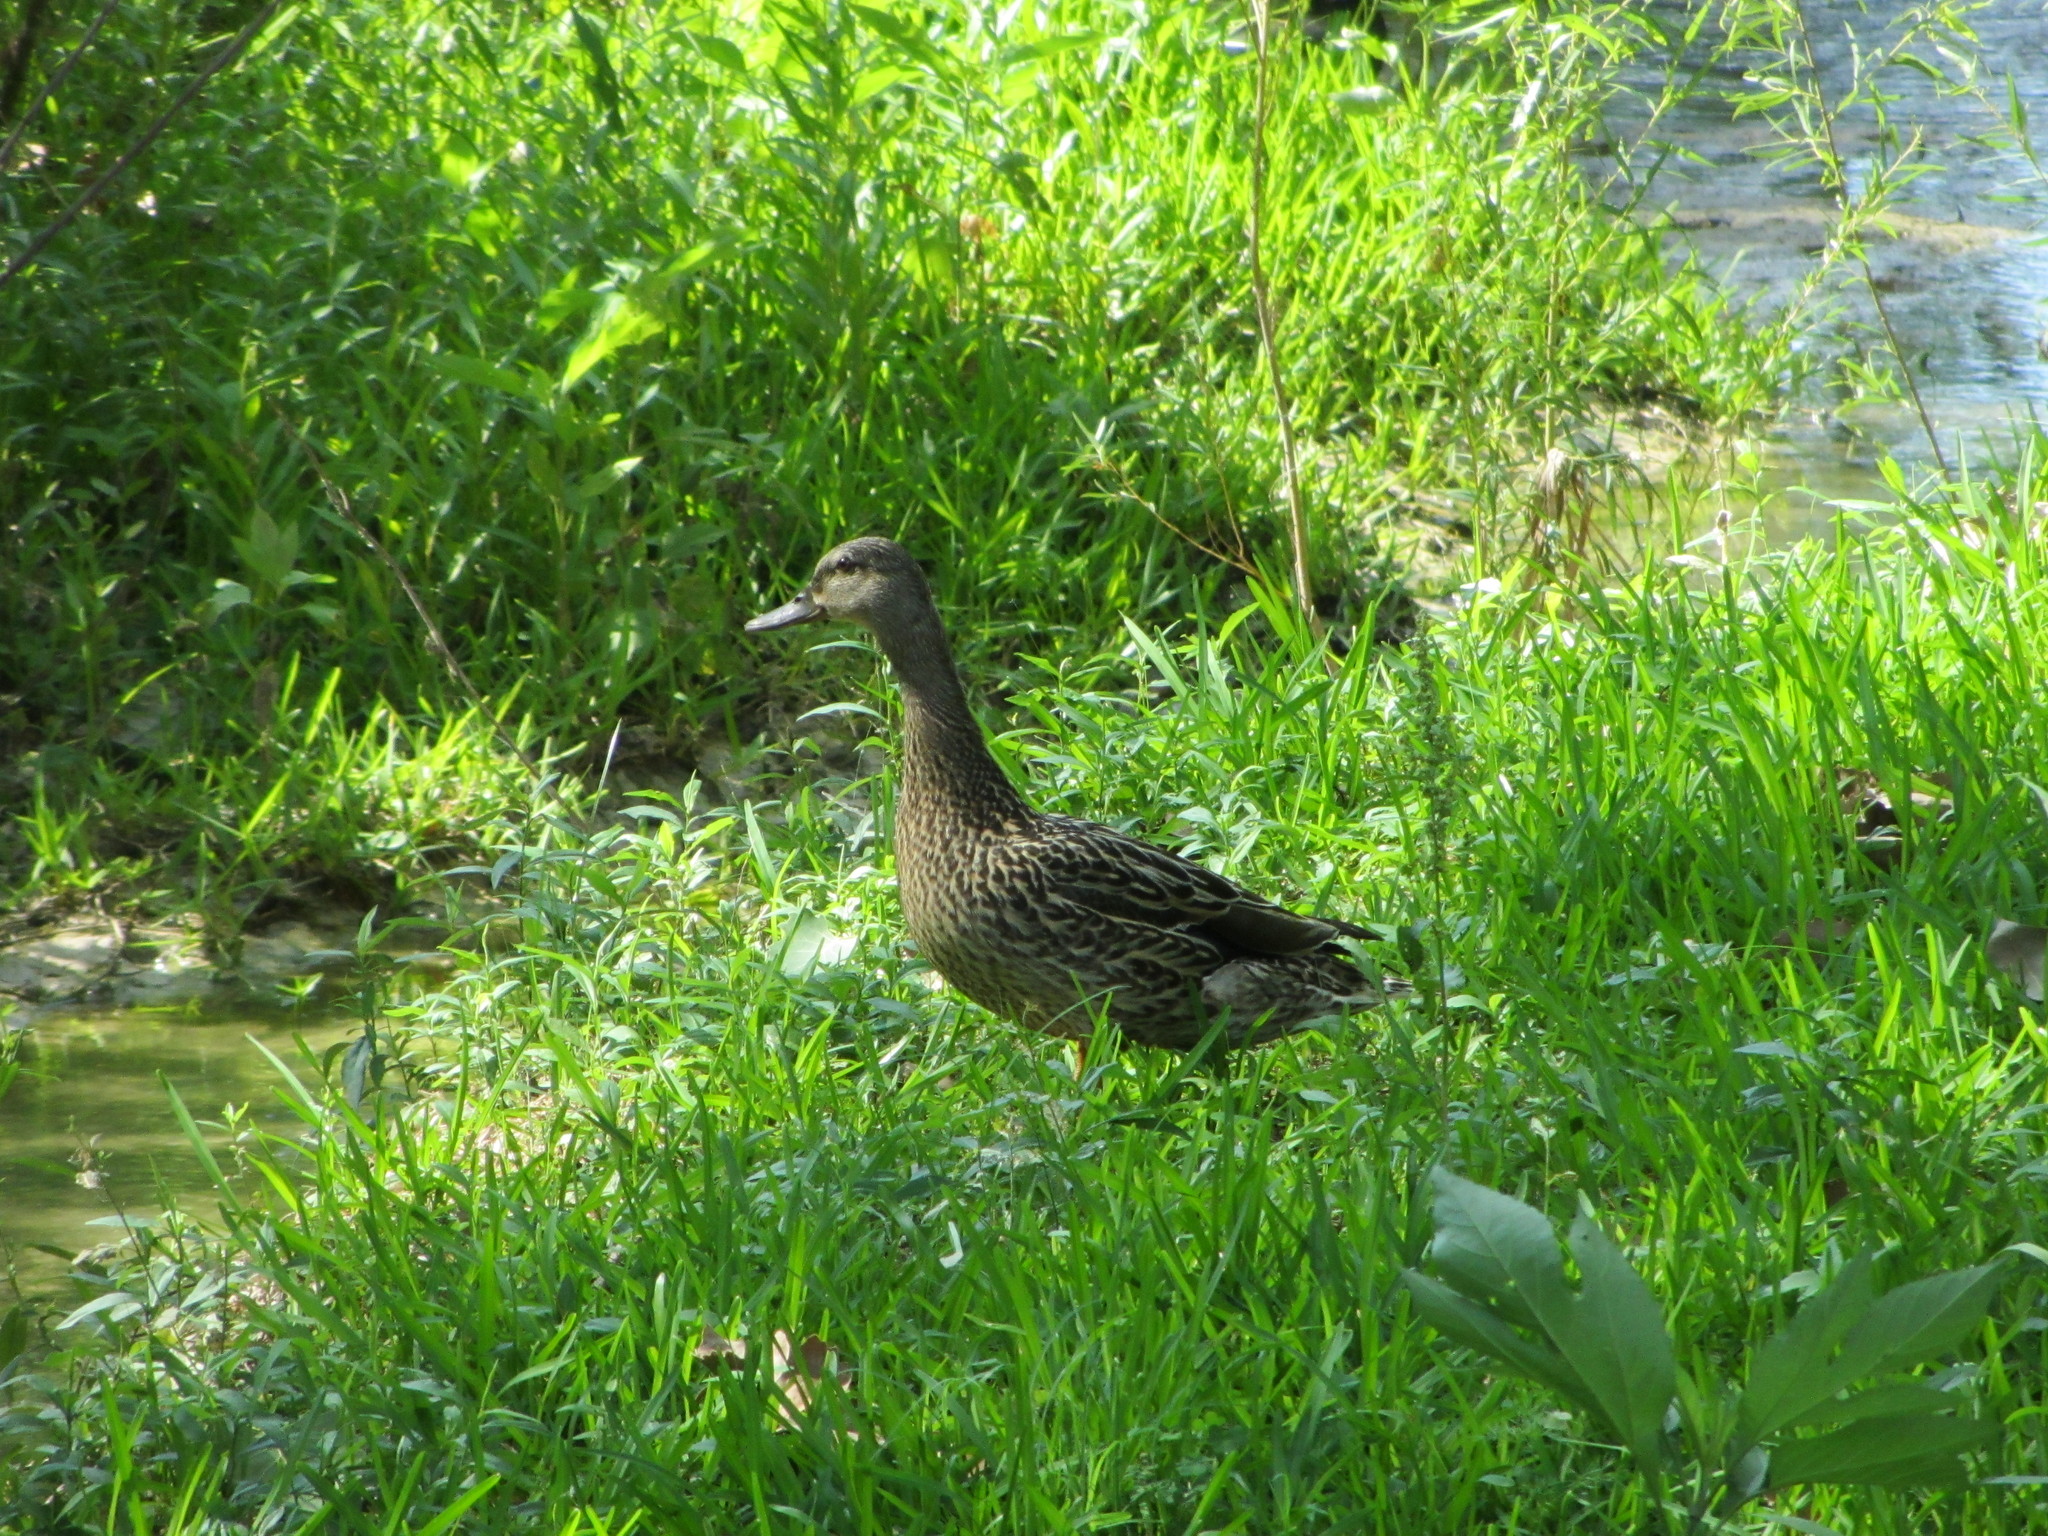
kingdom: Animalia
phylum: Chordata
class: Aves
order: Anseriformes
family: Anatidae
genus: Anas
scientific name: Anas platyrhynchos
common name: Mallard
